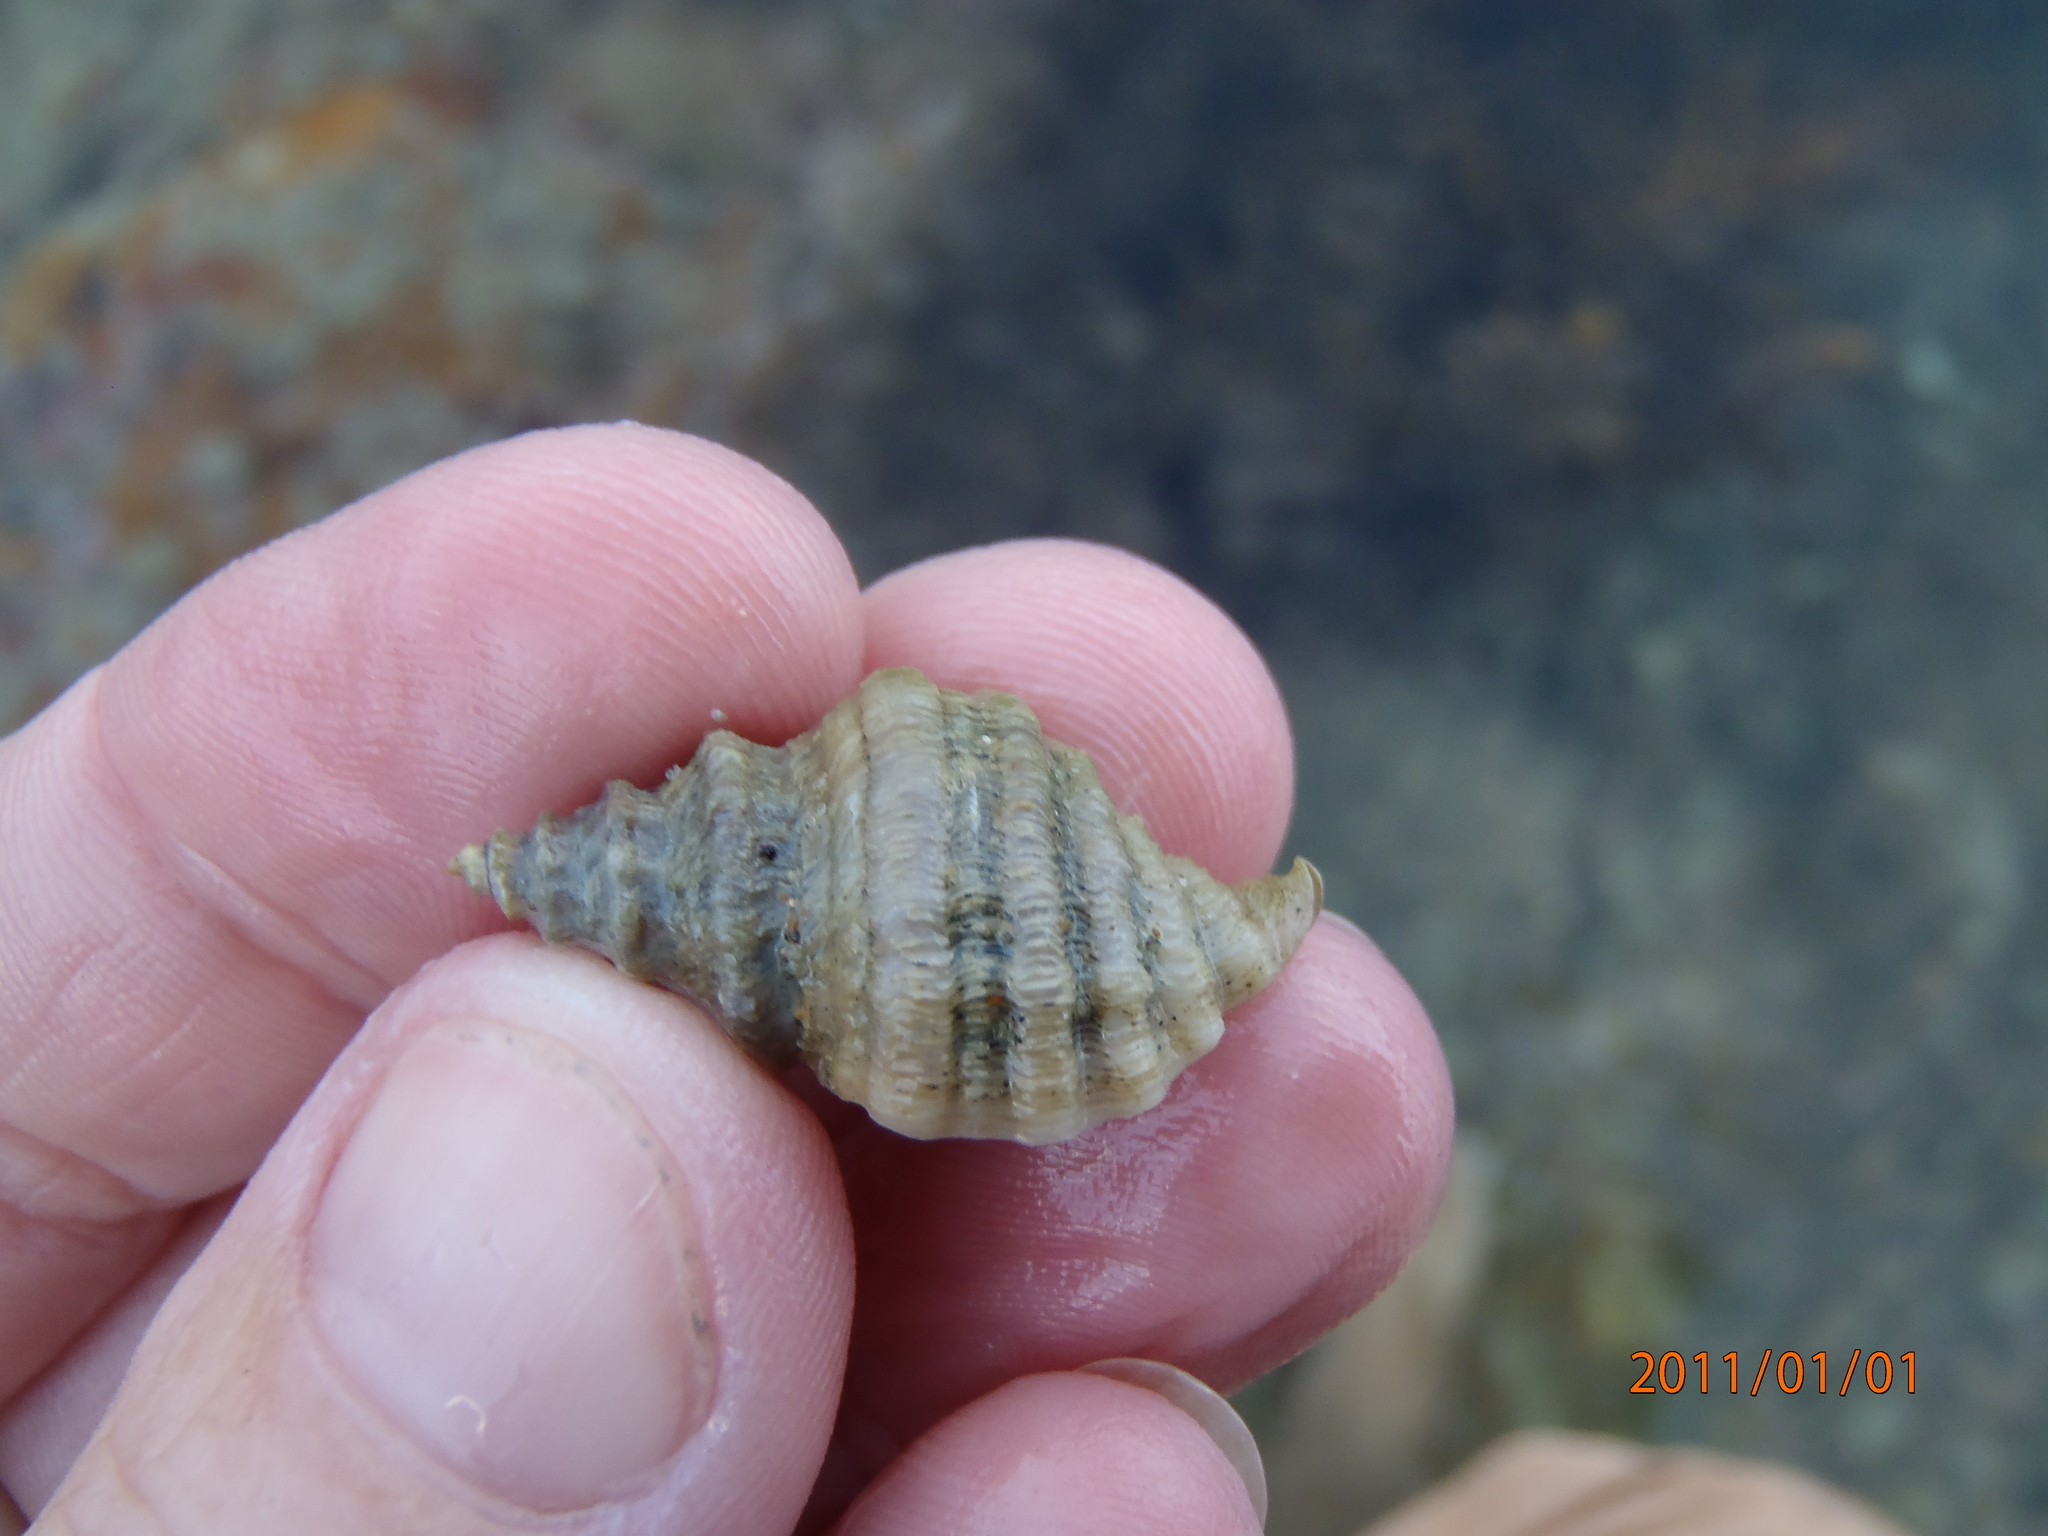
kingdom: Animalia
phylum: Mollusca
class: Gastropoda
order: Neogastropoda
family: Muricidae
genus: Paratrophon
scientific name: Paratrophon quoyi
